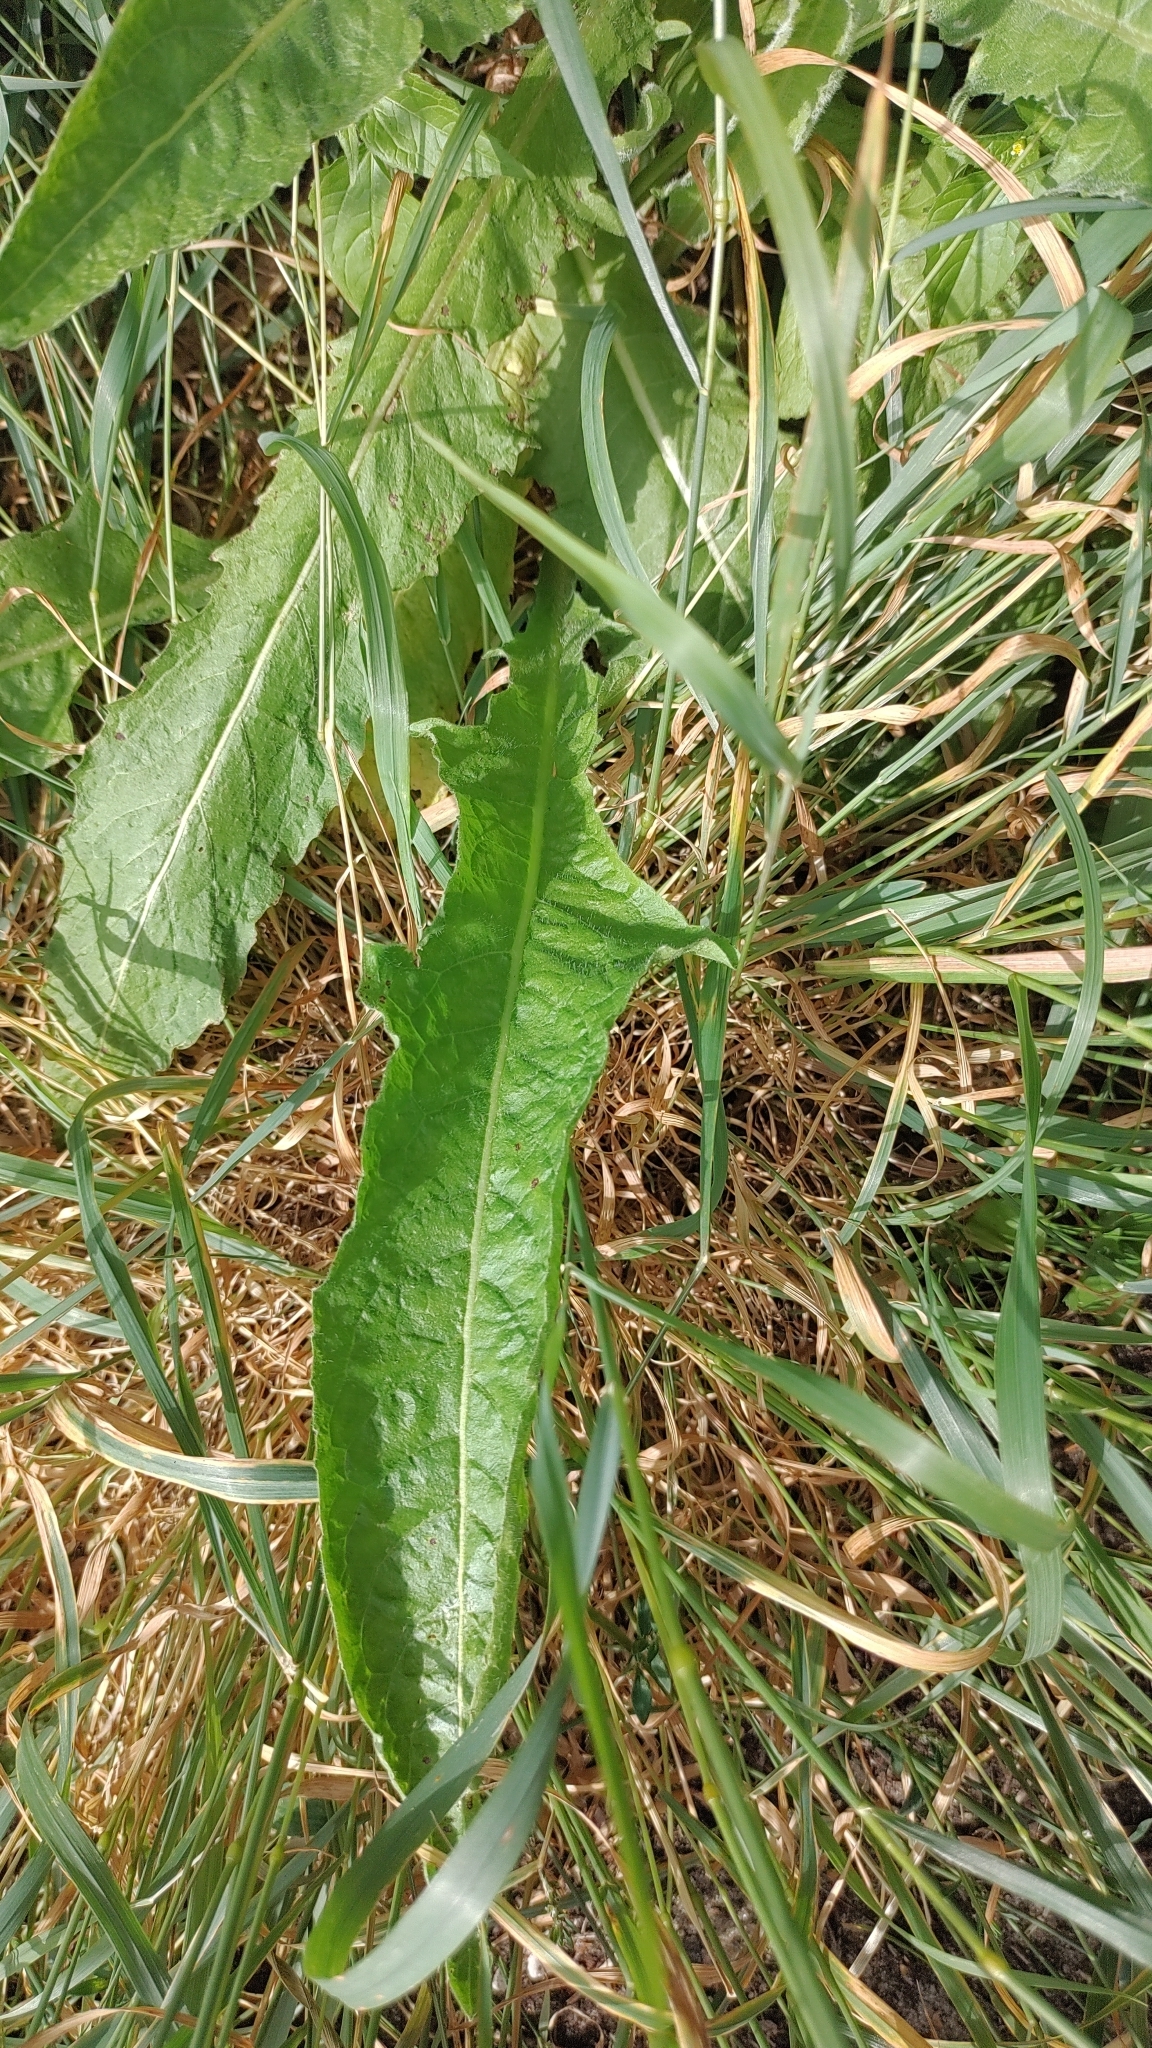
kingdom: Plantae
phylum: Tracheophyta
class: Magnoliopsida
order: Brassicales
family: Brassicaceae
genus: Bunias
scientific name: Bunias orientalis
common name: Warty-cabbage
